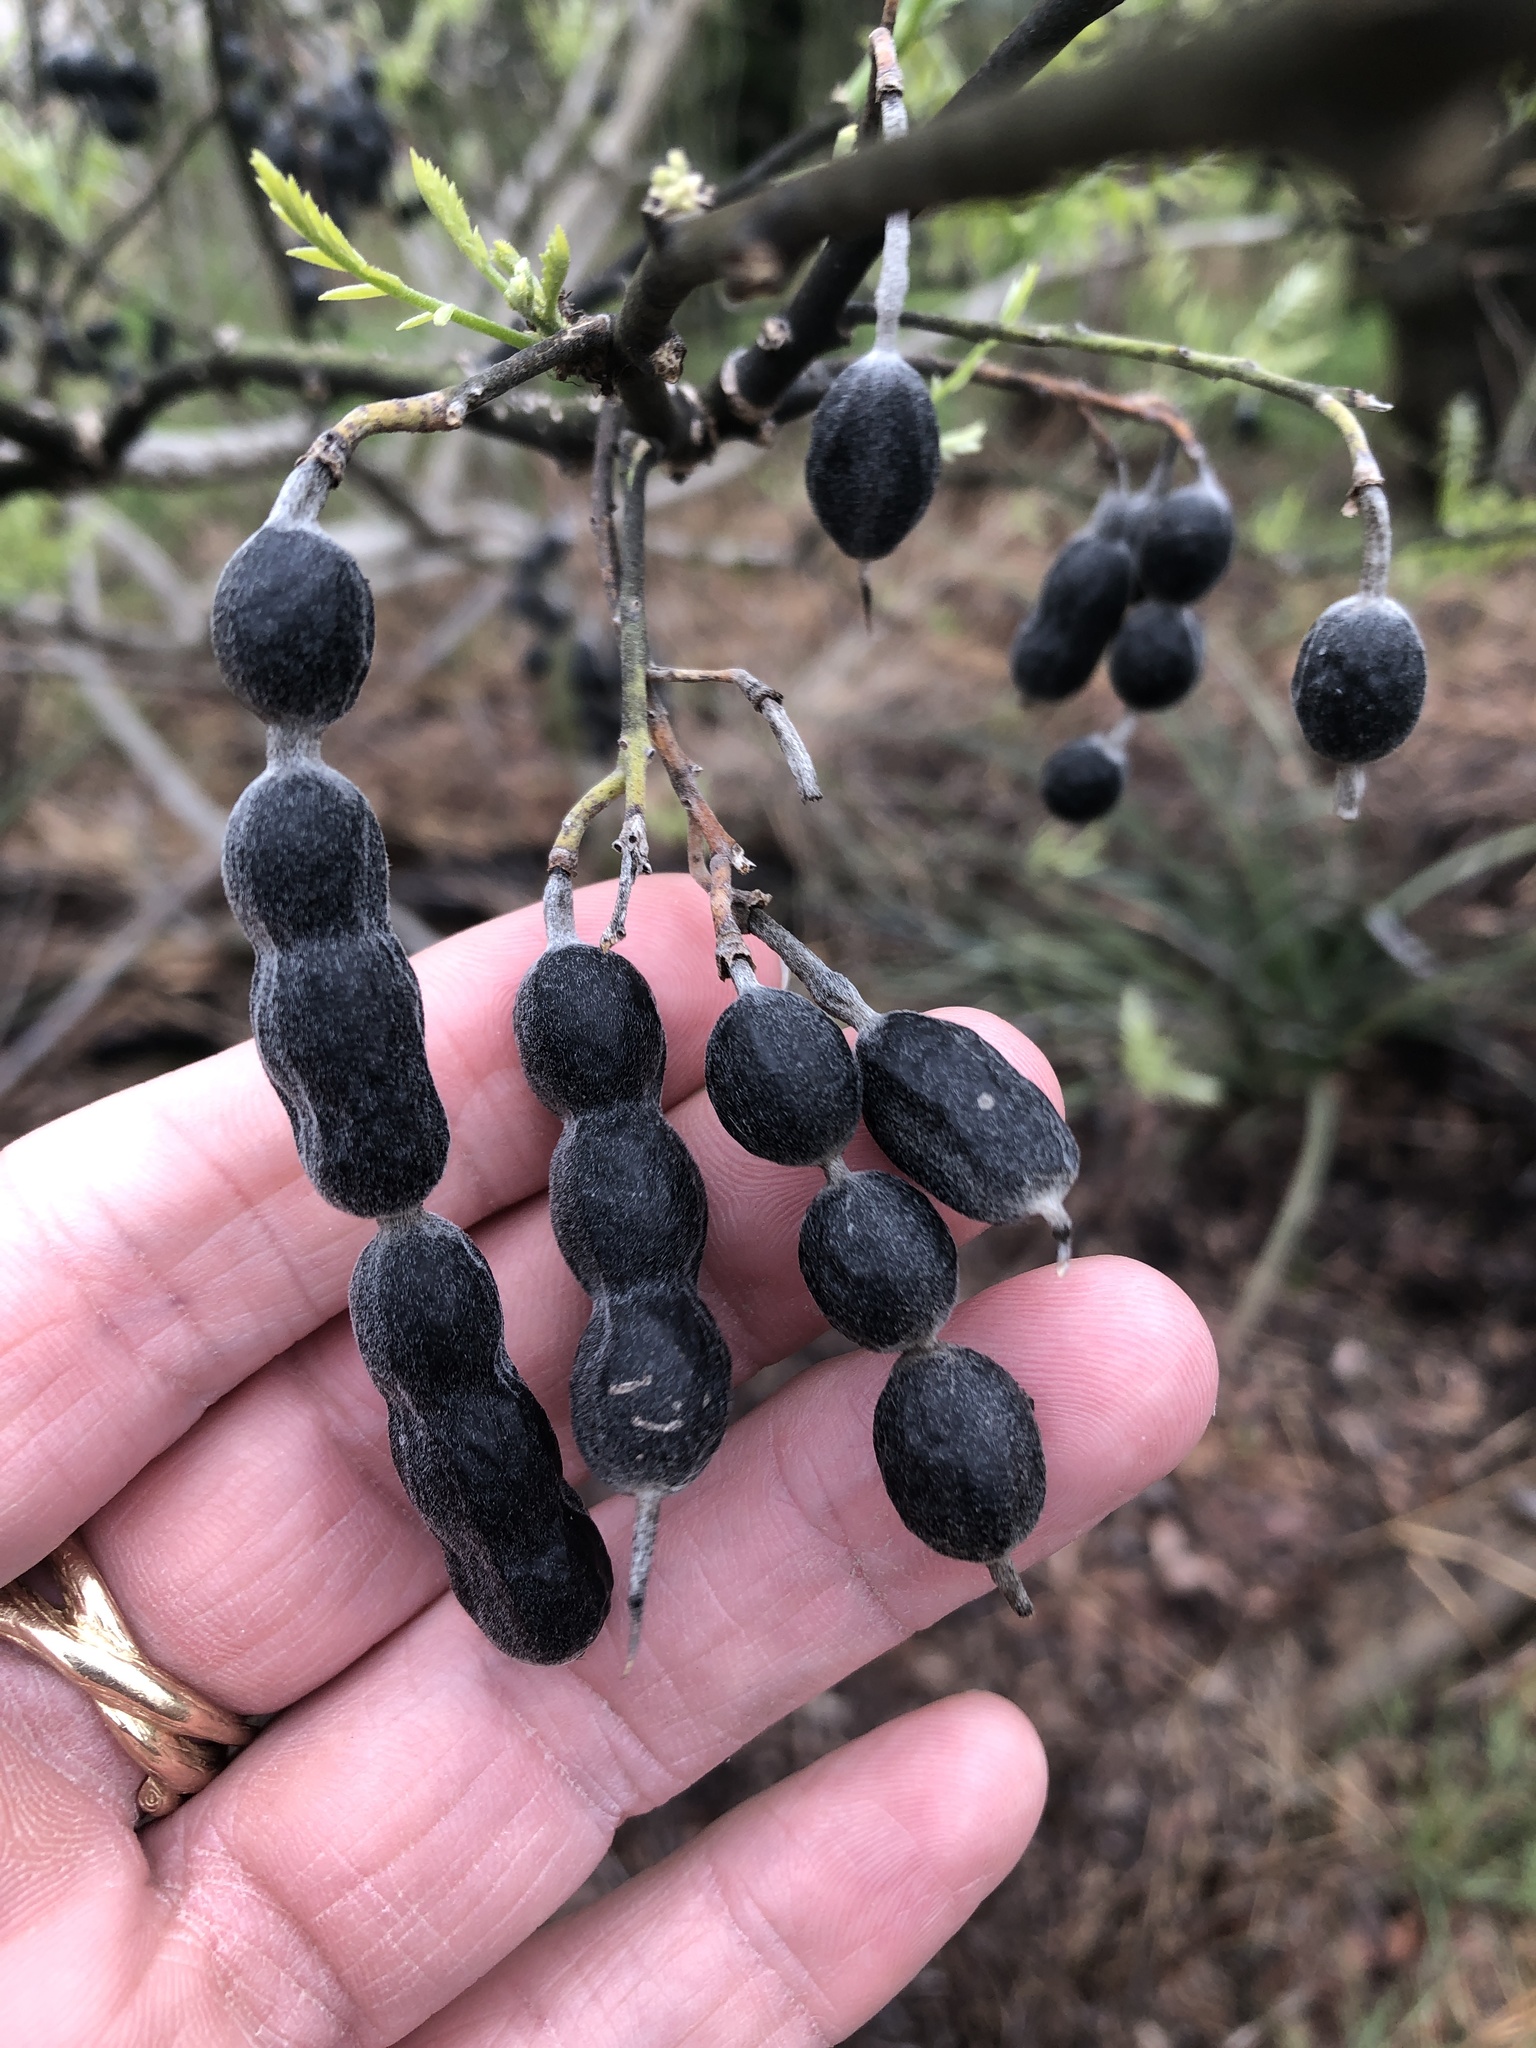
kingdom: Plantae
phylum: Tracheophyta
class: Magnoliopsida
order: Fabales
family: Fabaceae
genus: Styphnolobium
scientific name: Styphnolobium affine
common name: Texas sophora
